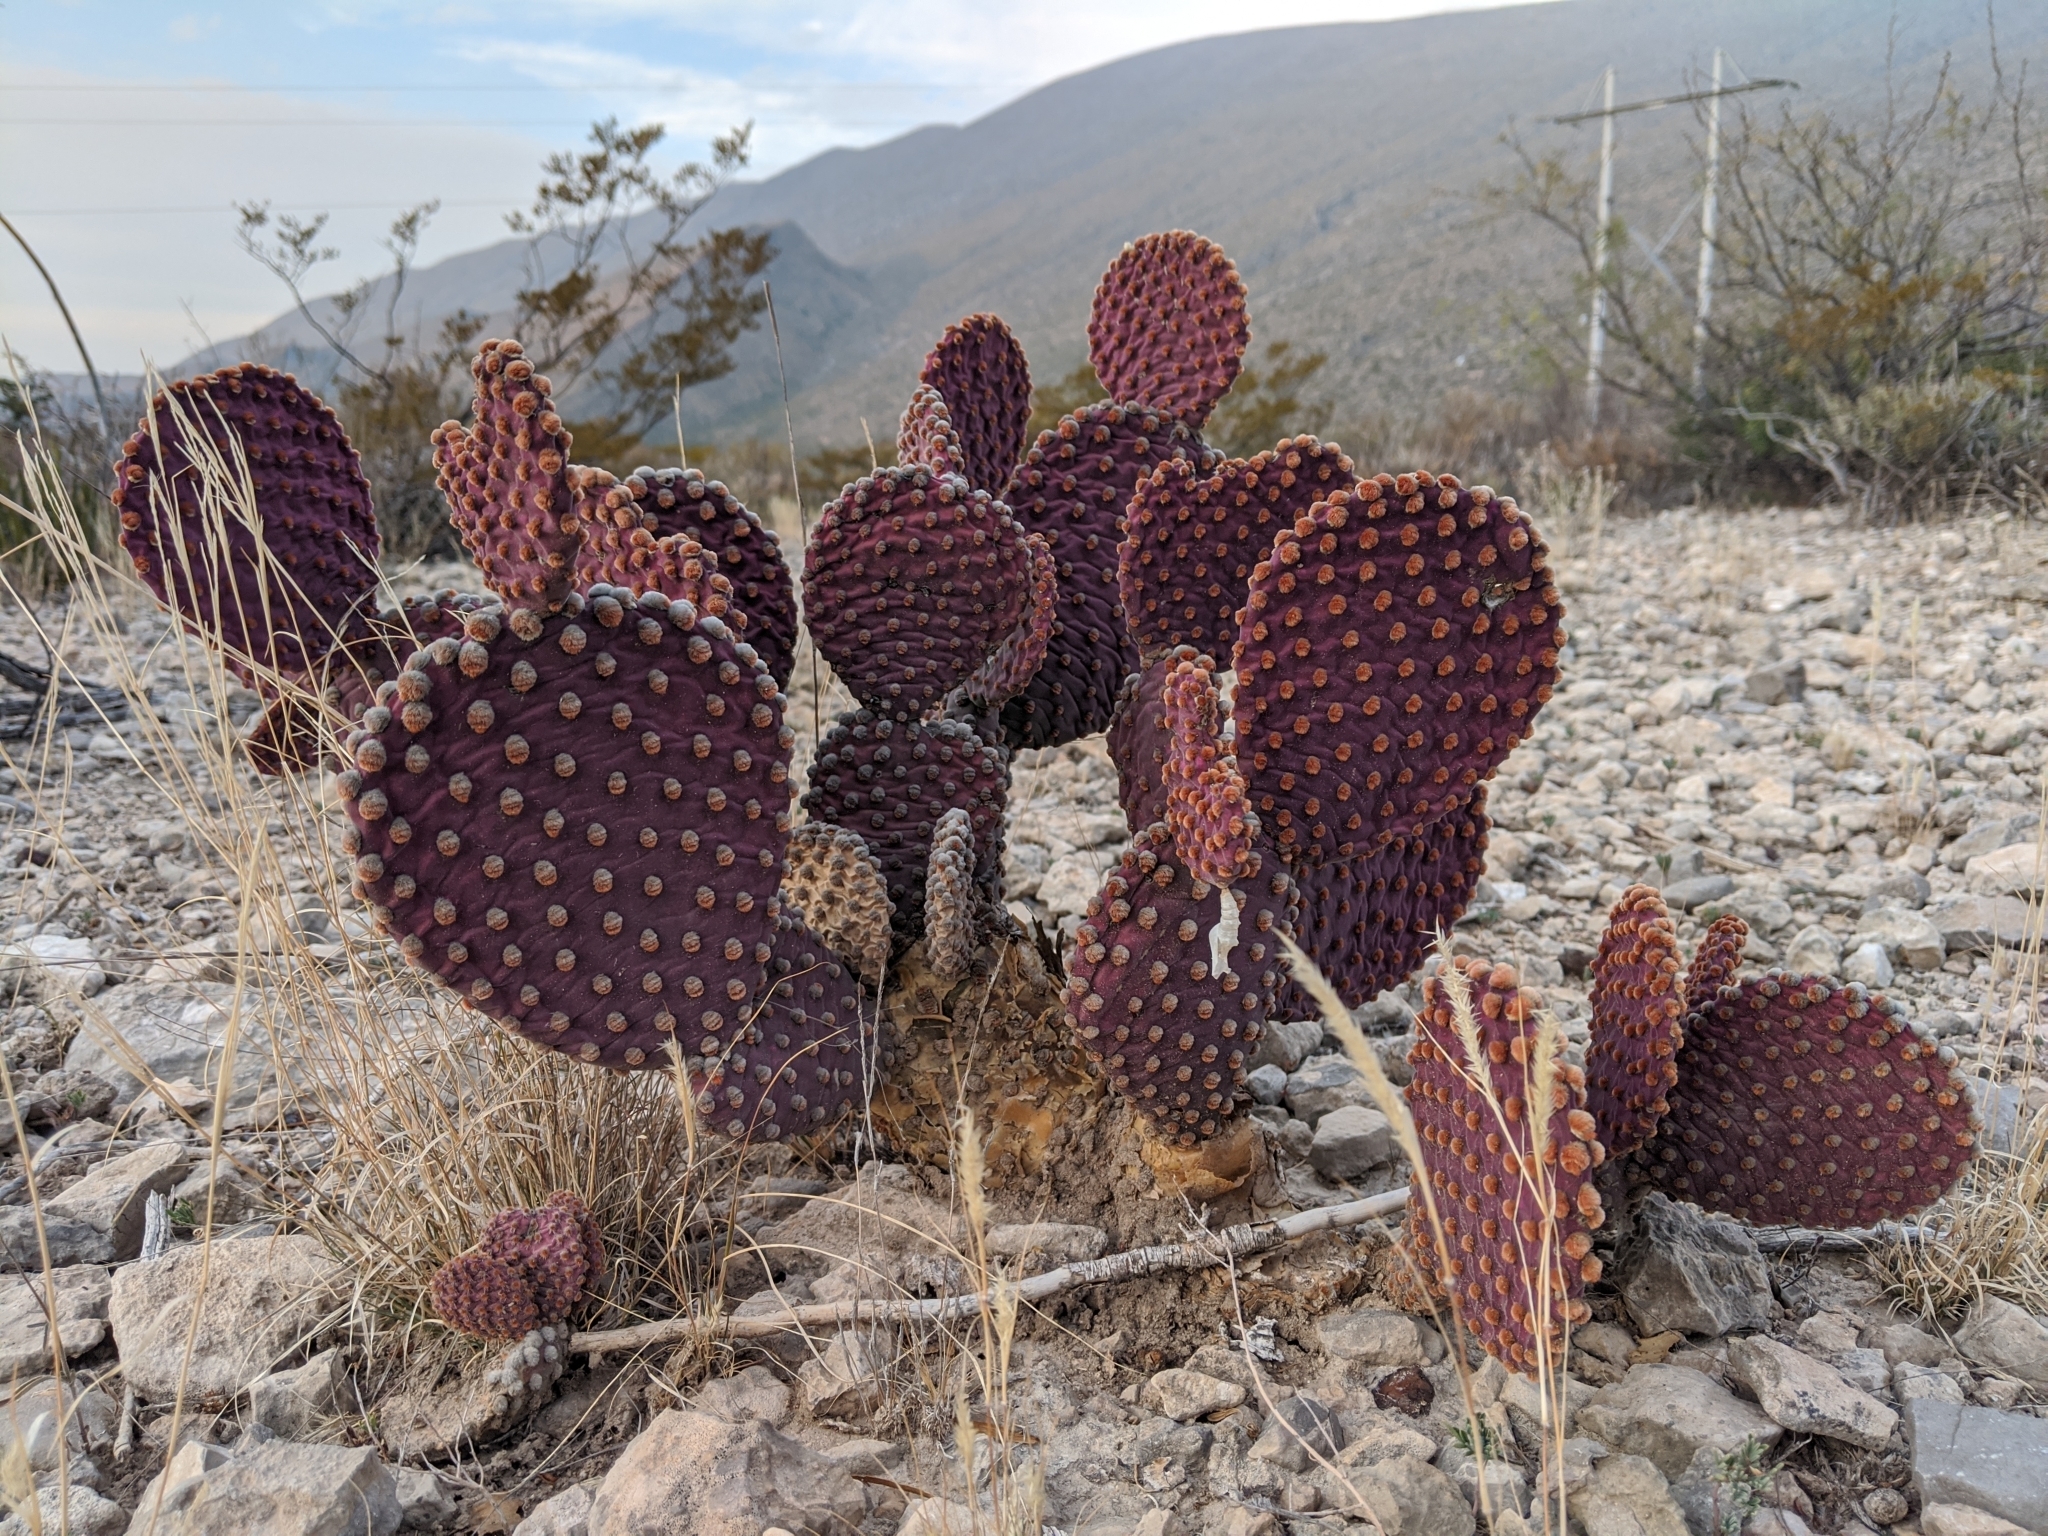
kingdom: Plantae
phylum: Tracheophyta
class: Magnoliopsida
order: Caryophyllales
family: Cactaceae
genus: Opuntia
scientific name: Opuntia microdasys
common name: Angel's-wings
